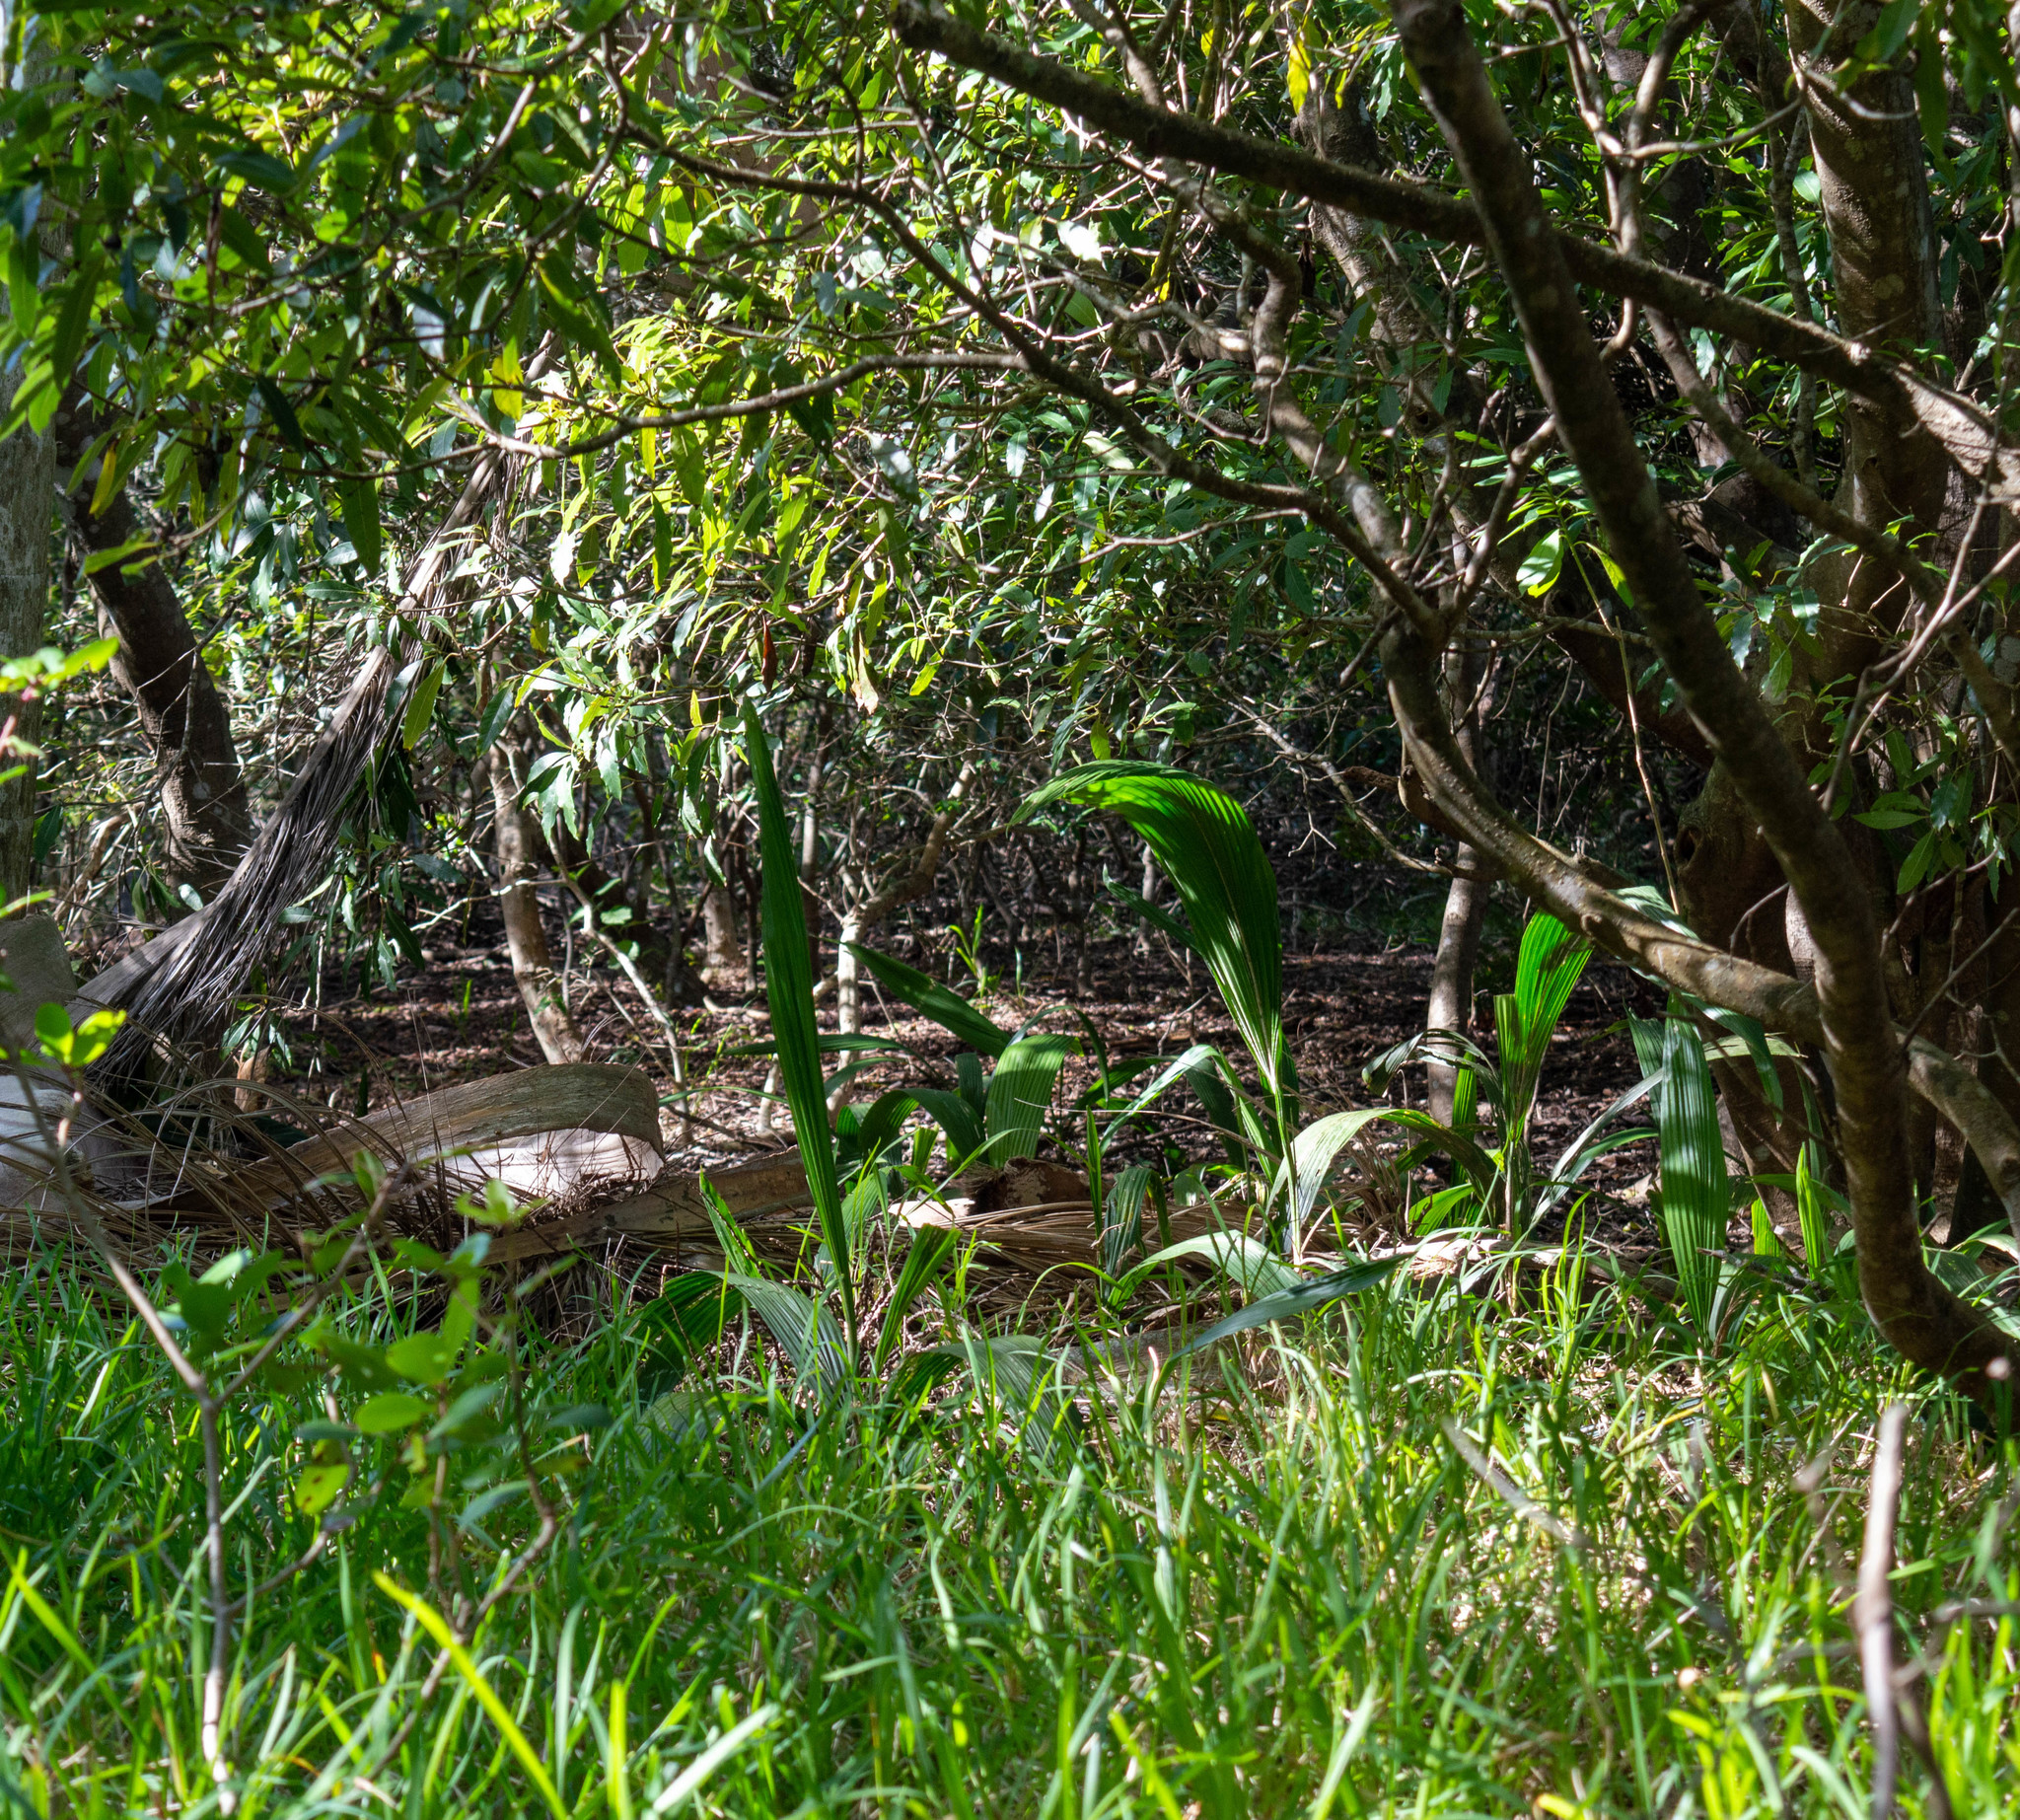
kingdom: Plantae
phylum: Tracheophyta
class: Liliopsida
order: Arecales
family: Arecaceae
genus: Syagrus
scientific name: Syagrus romanzoffiana
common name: Queen palm
